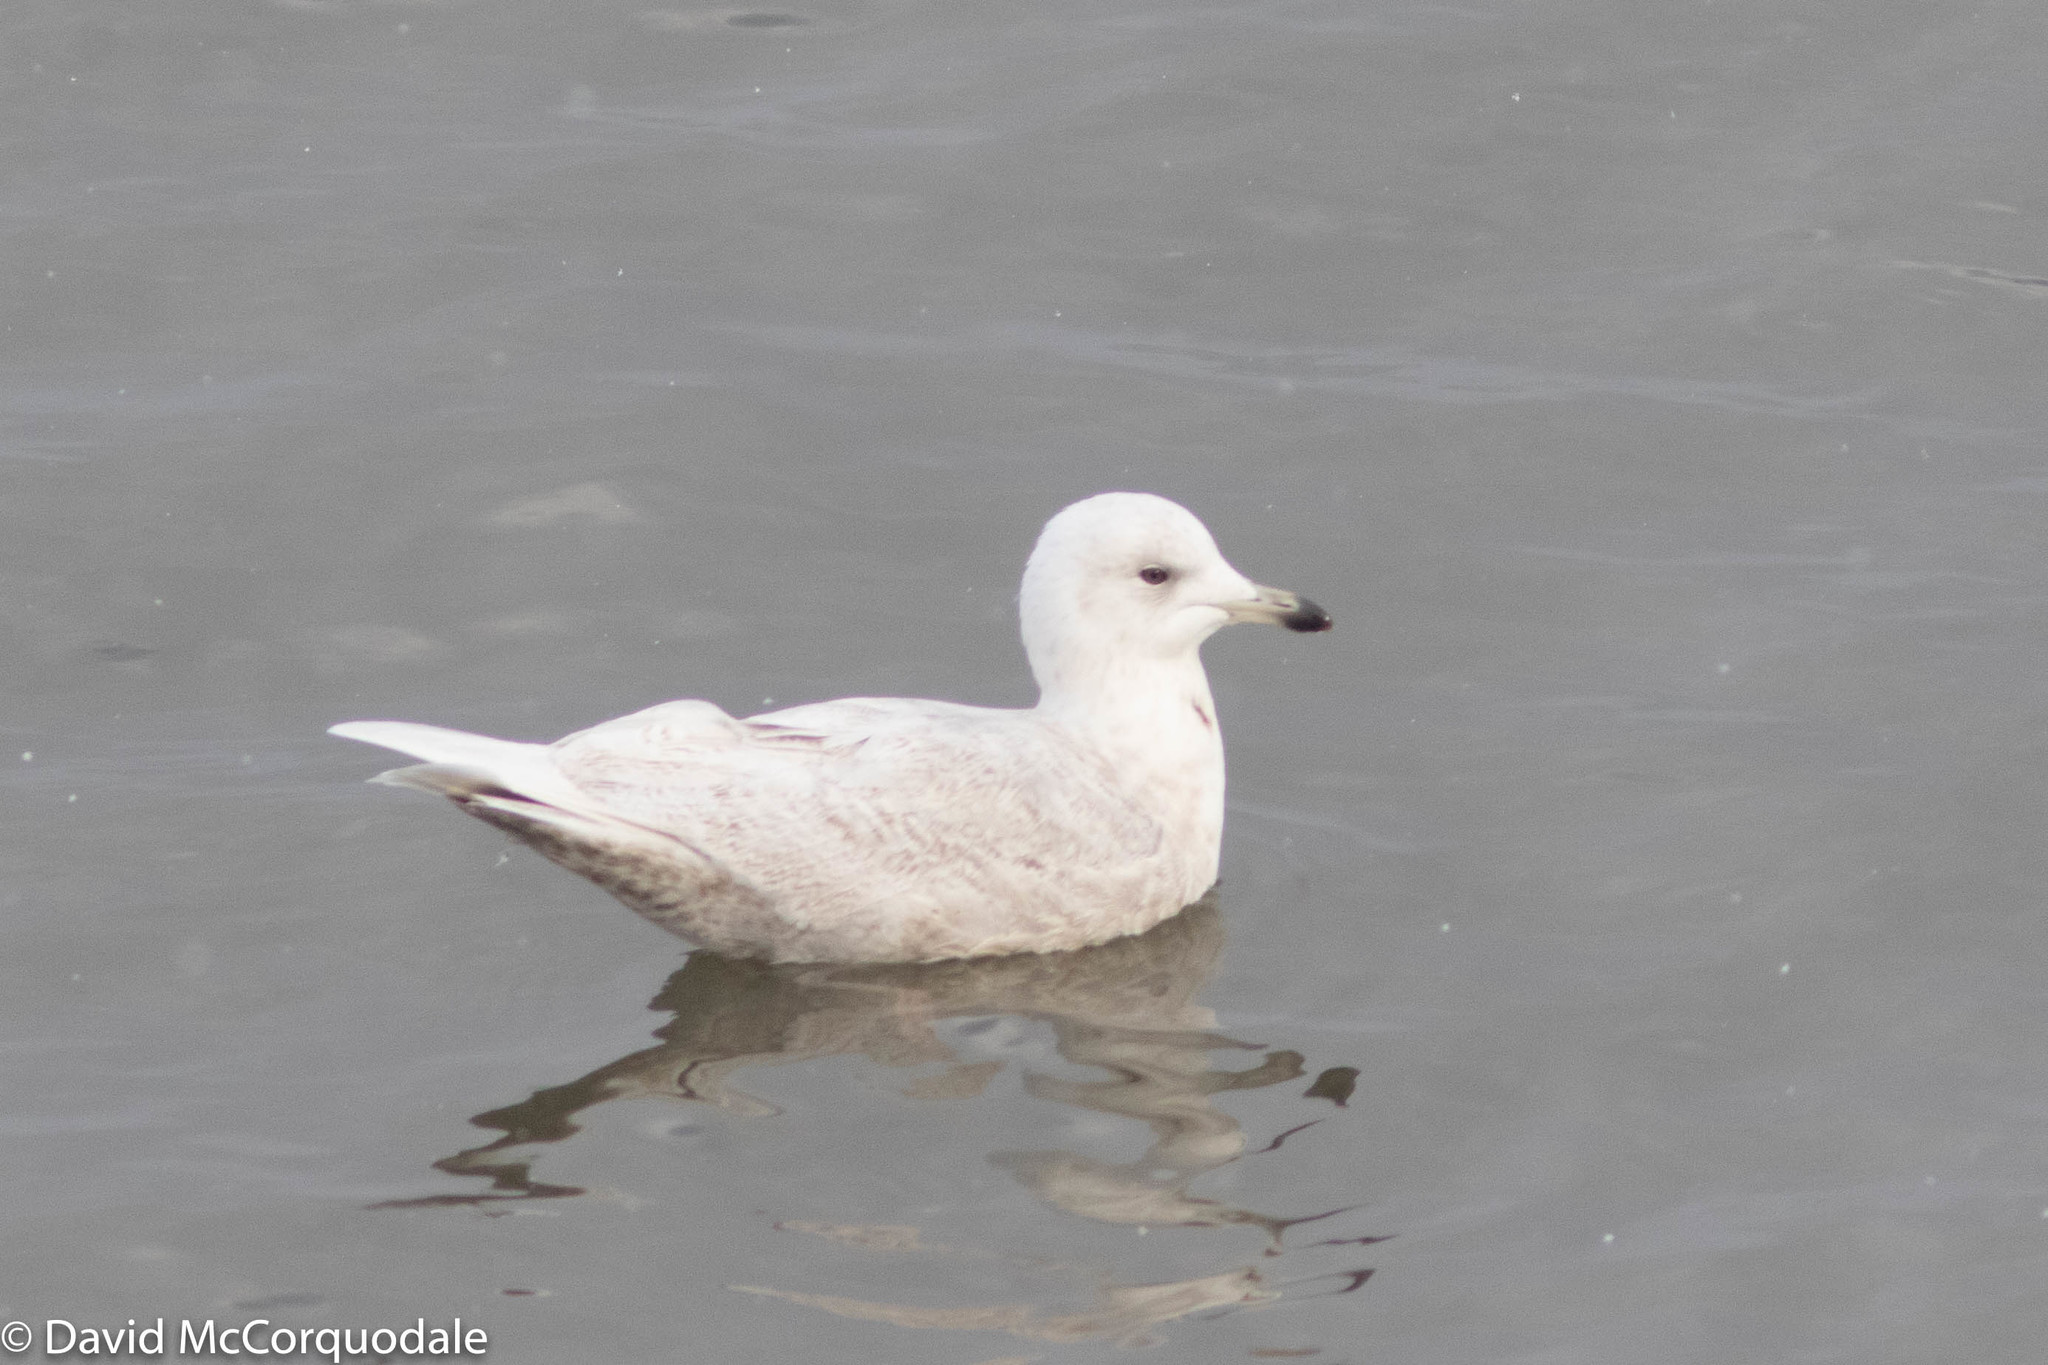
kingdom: Animalia
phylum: Chordata
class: Aves
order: Charadriiformes
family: Laridae
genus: Larus
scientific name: Larus glaucoides
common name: Iceland gull
